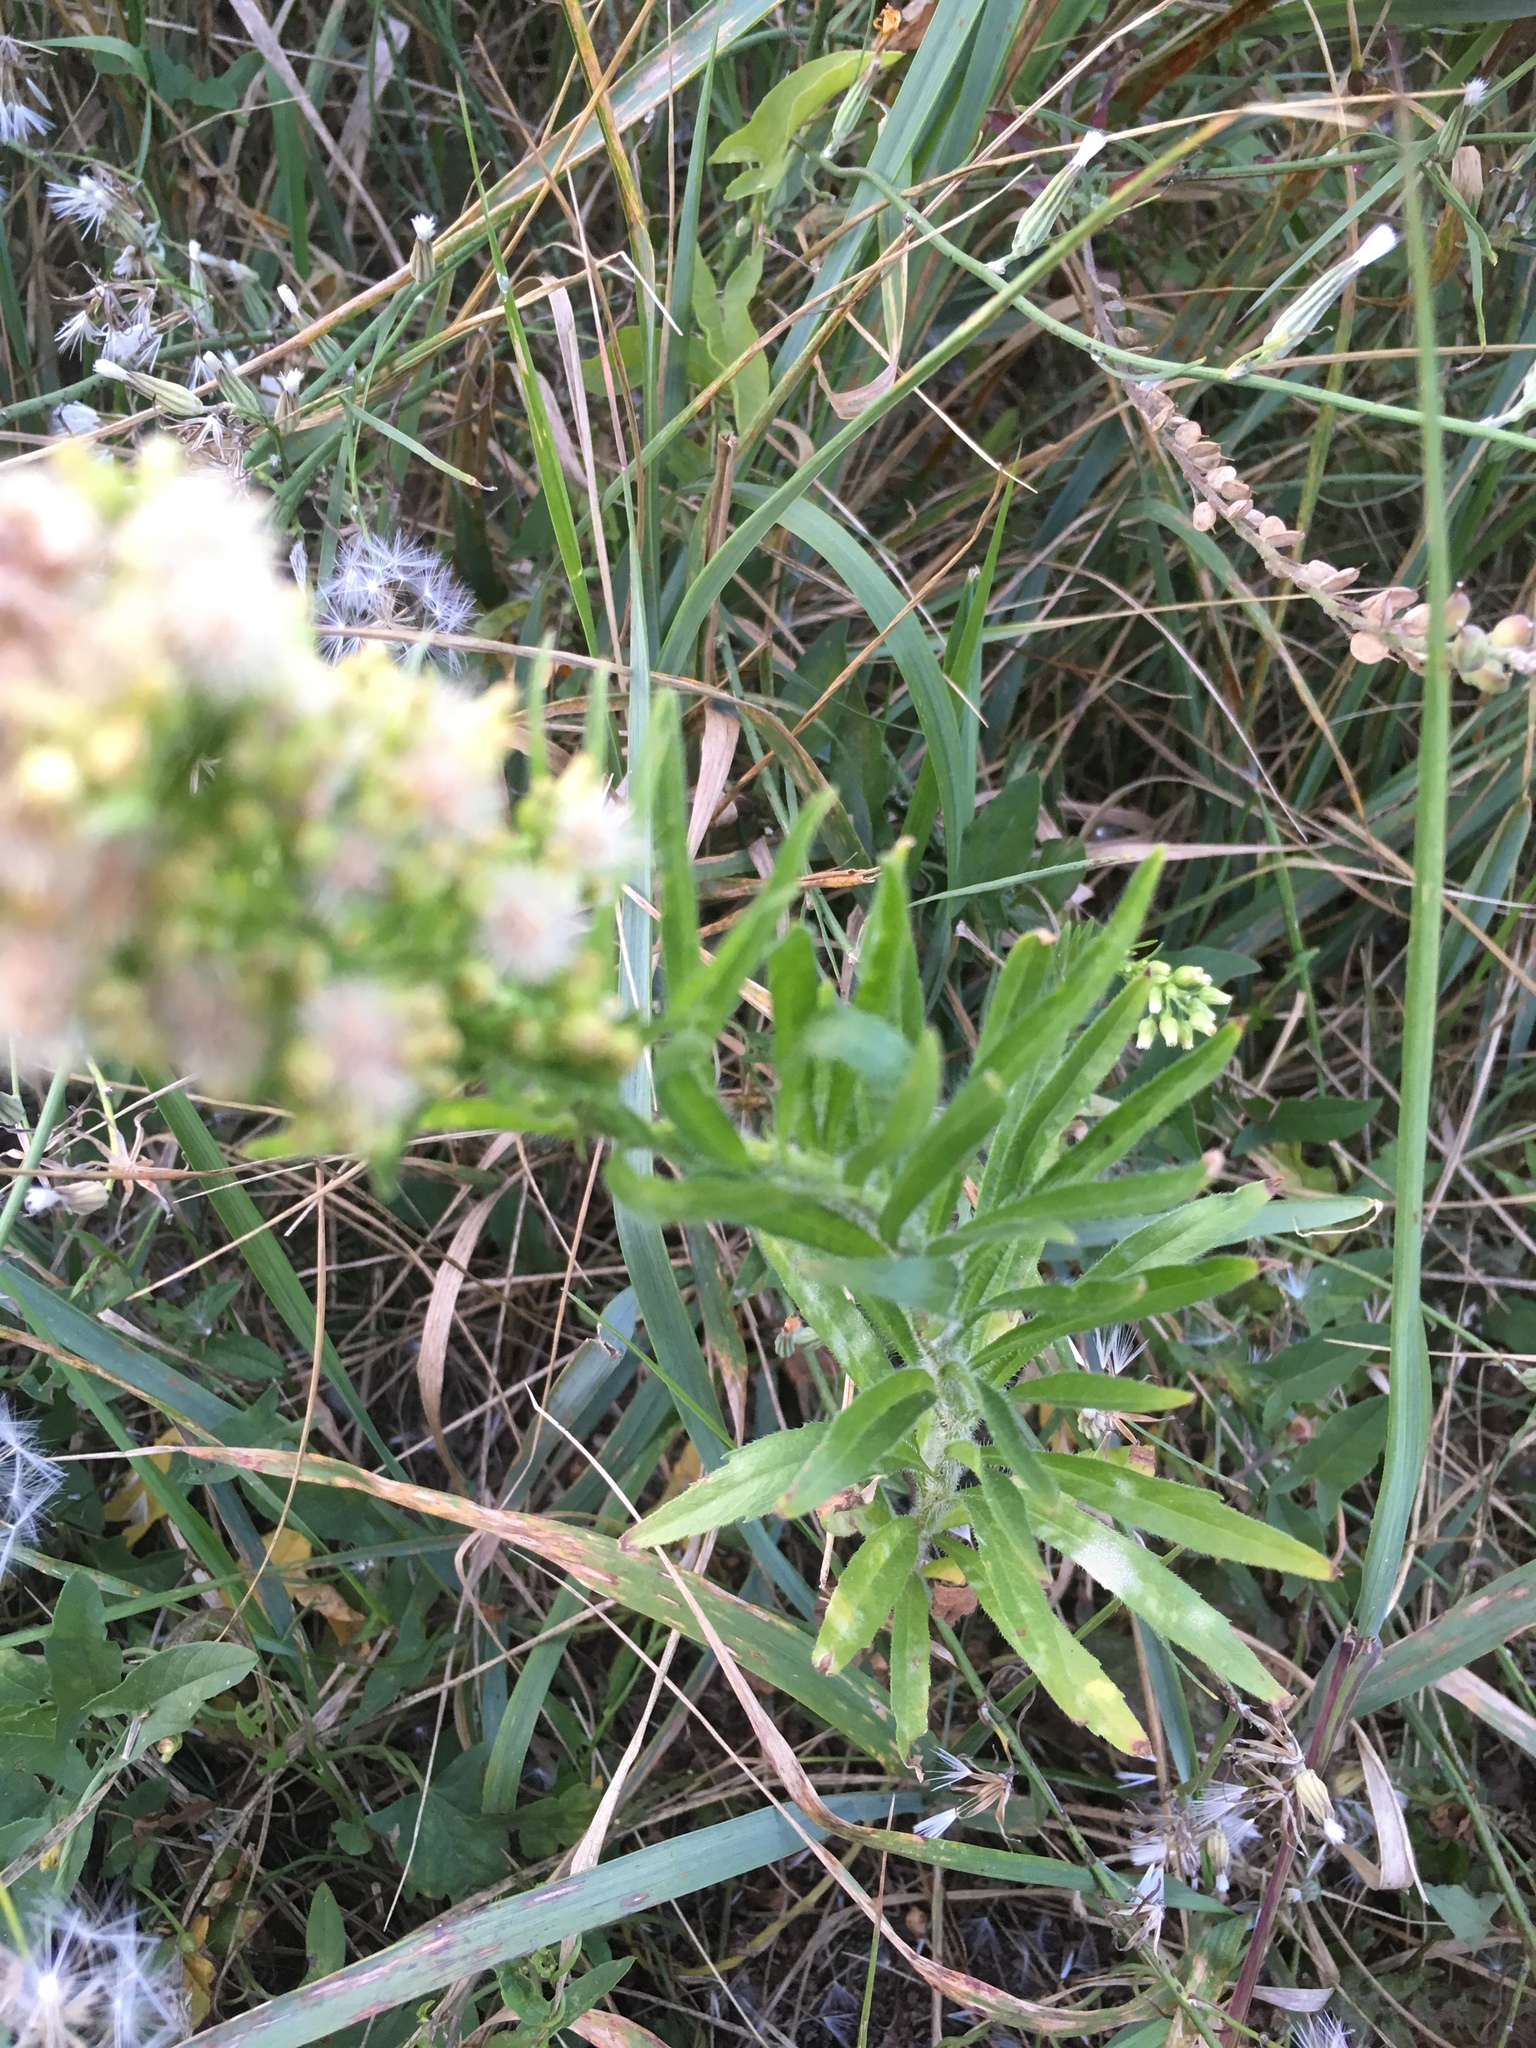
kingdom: Plantae
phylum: Tracheophyta
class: Magnoliopsida
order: Asterales
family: Asteraceae
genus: Erigeron
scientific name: Erigeron canadensis
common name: Canadian fleabane
